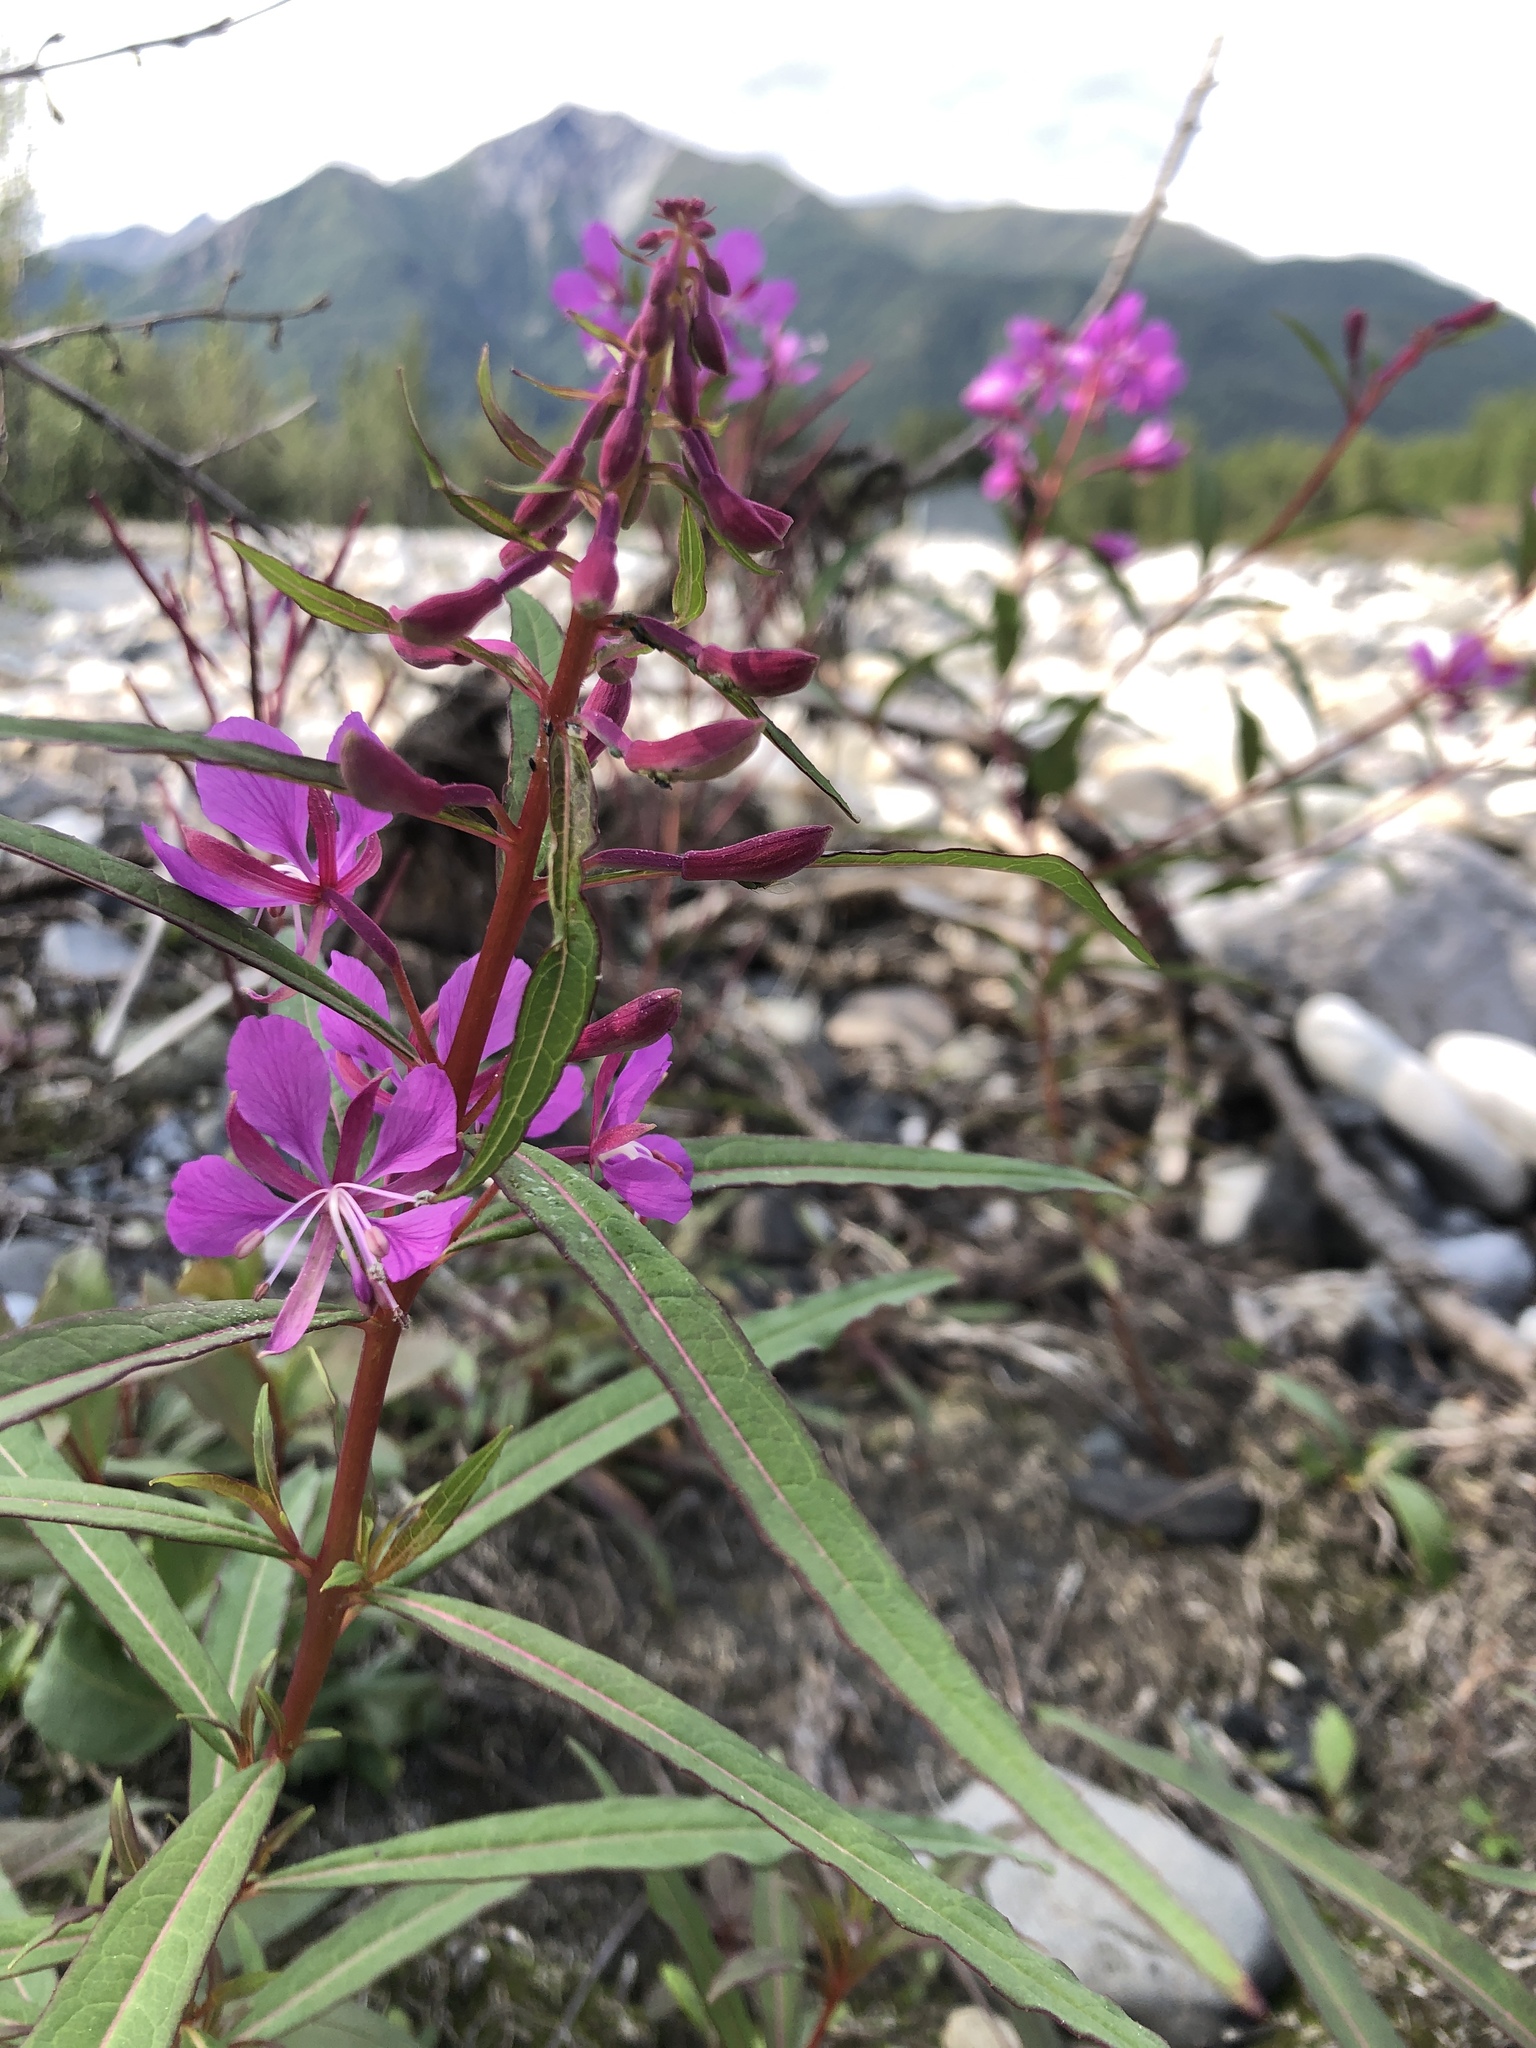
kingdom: Plantae
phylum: Tracheophyta
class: Magnoliopsida
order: Myrtales
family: Onagraceae
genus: Chamaenerion
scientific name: Chamaenerion angustifolium
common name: Fireweed
